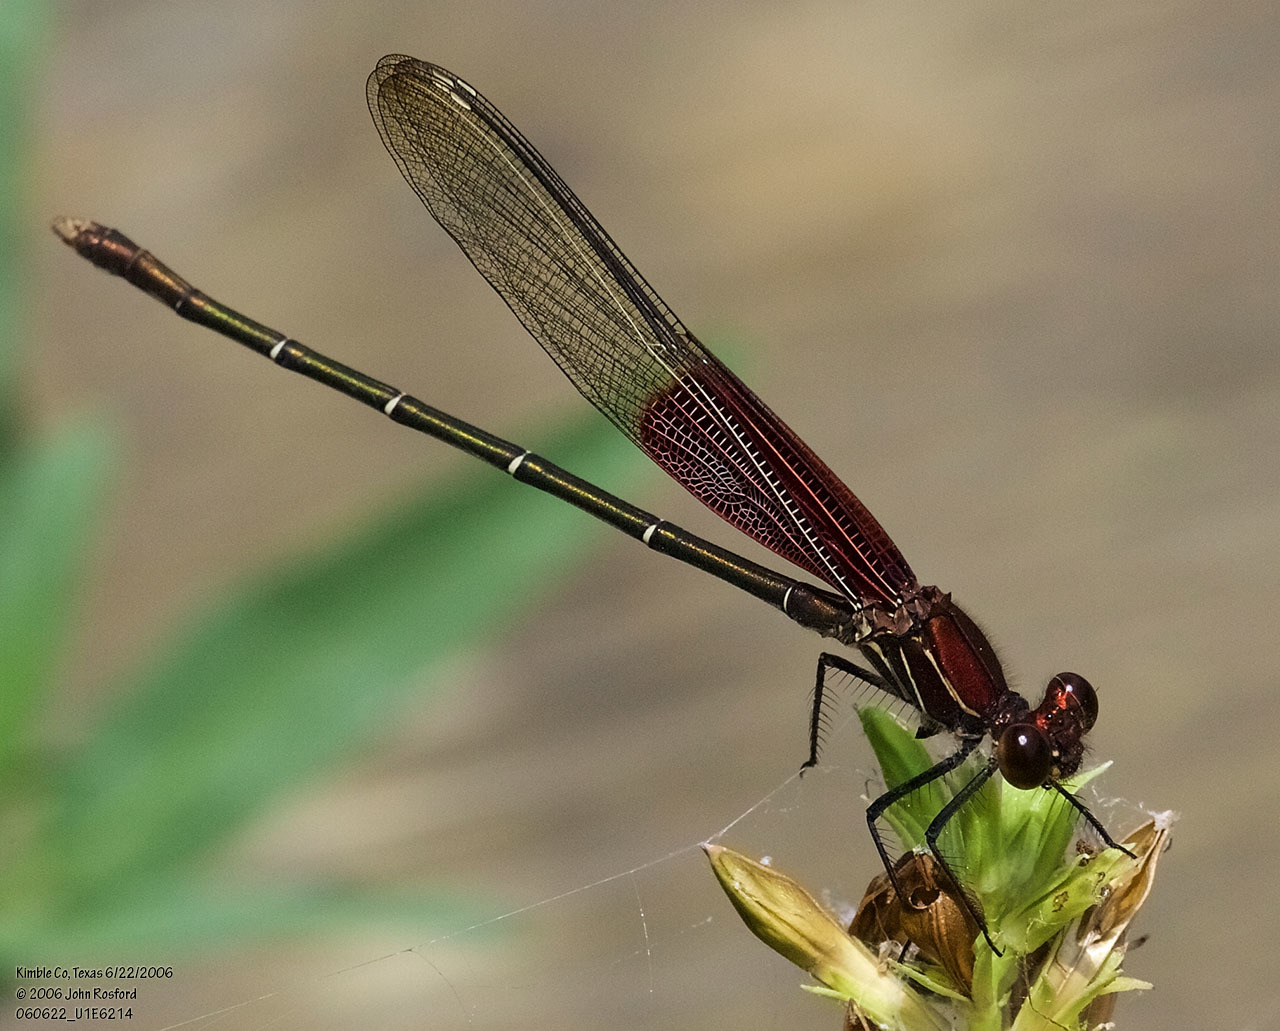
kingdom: Animalia
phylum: Arthropoda
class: Insecta
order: Odonata
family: Calopterygidae
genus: Hetaerina
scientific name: Hetaerina americana
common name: American rubyspot
